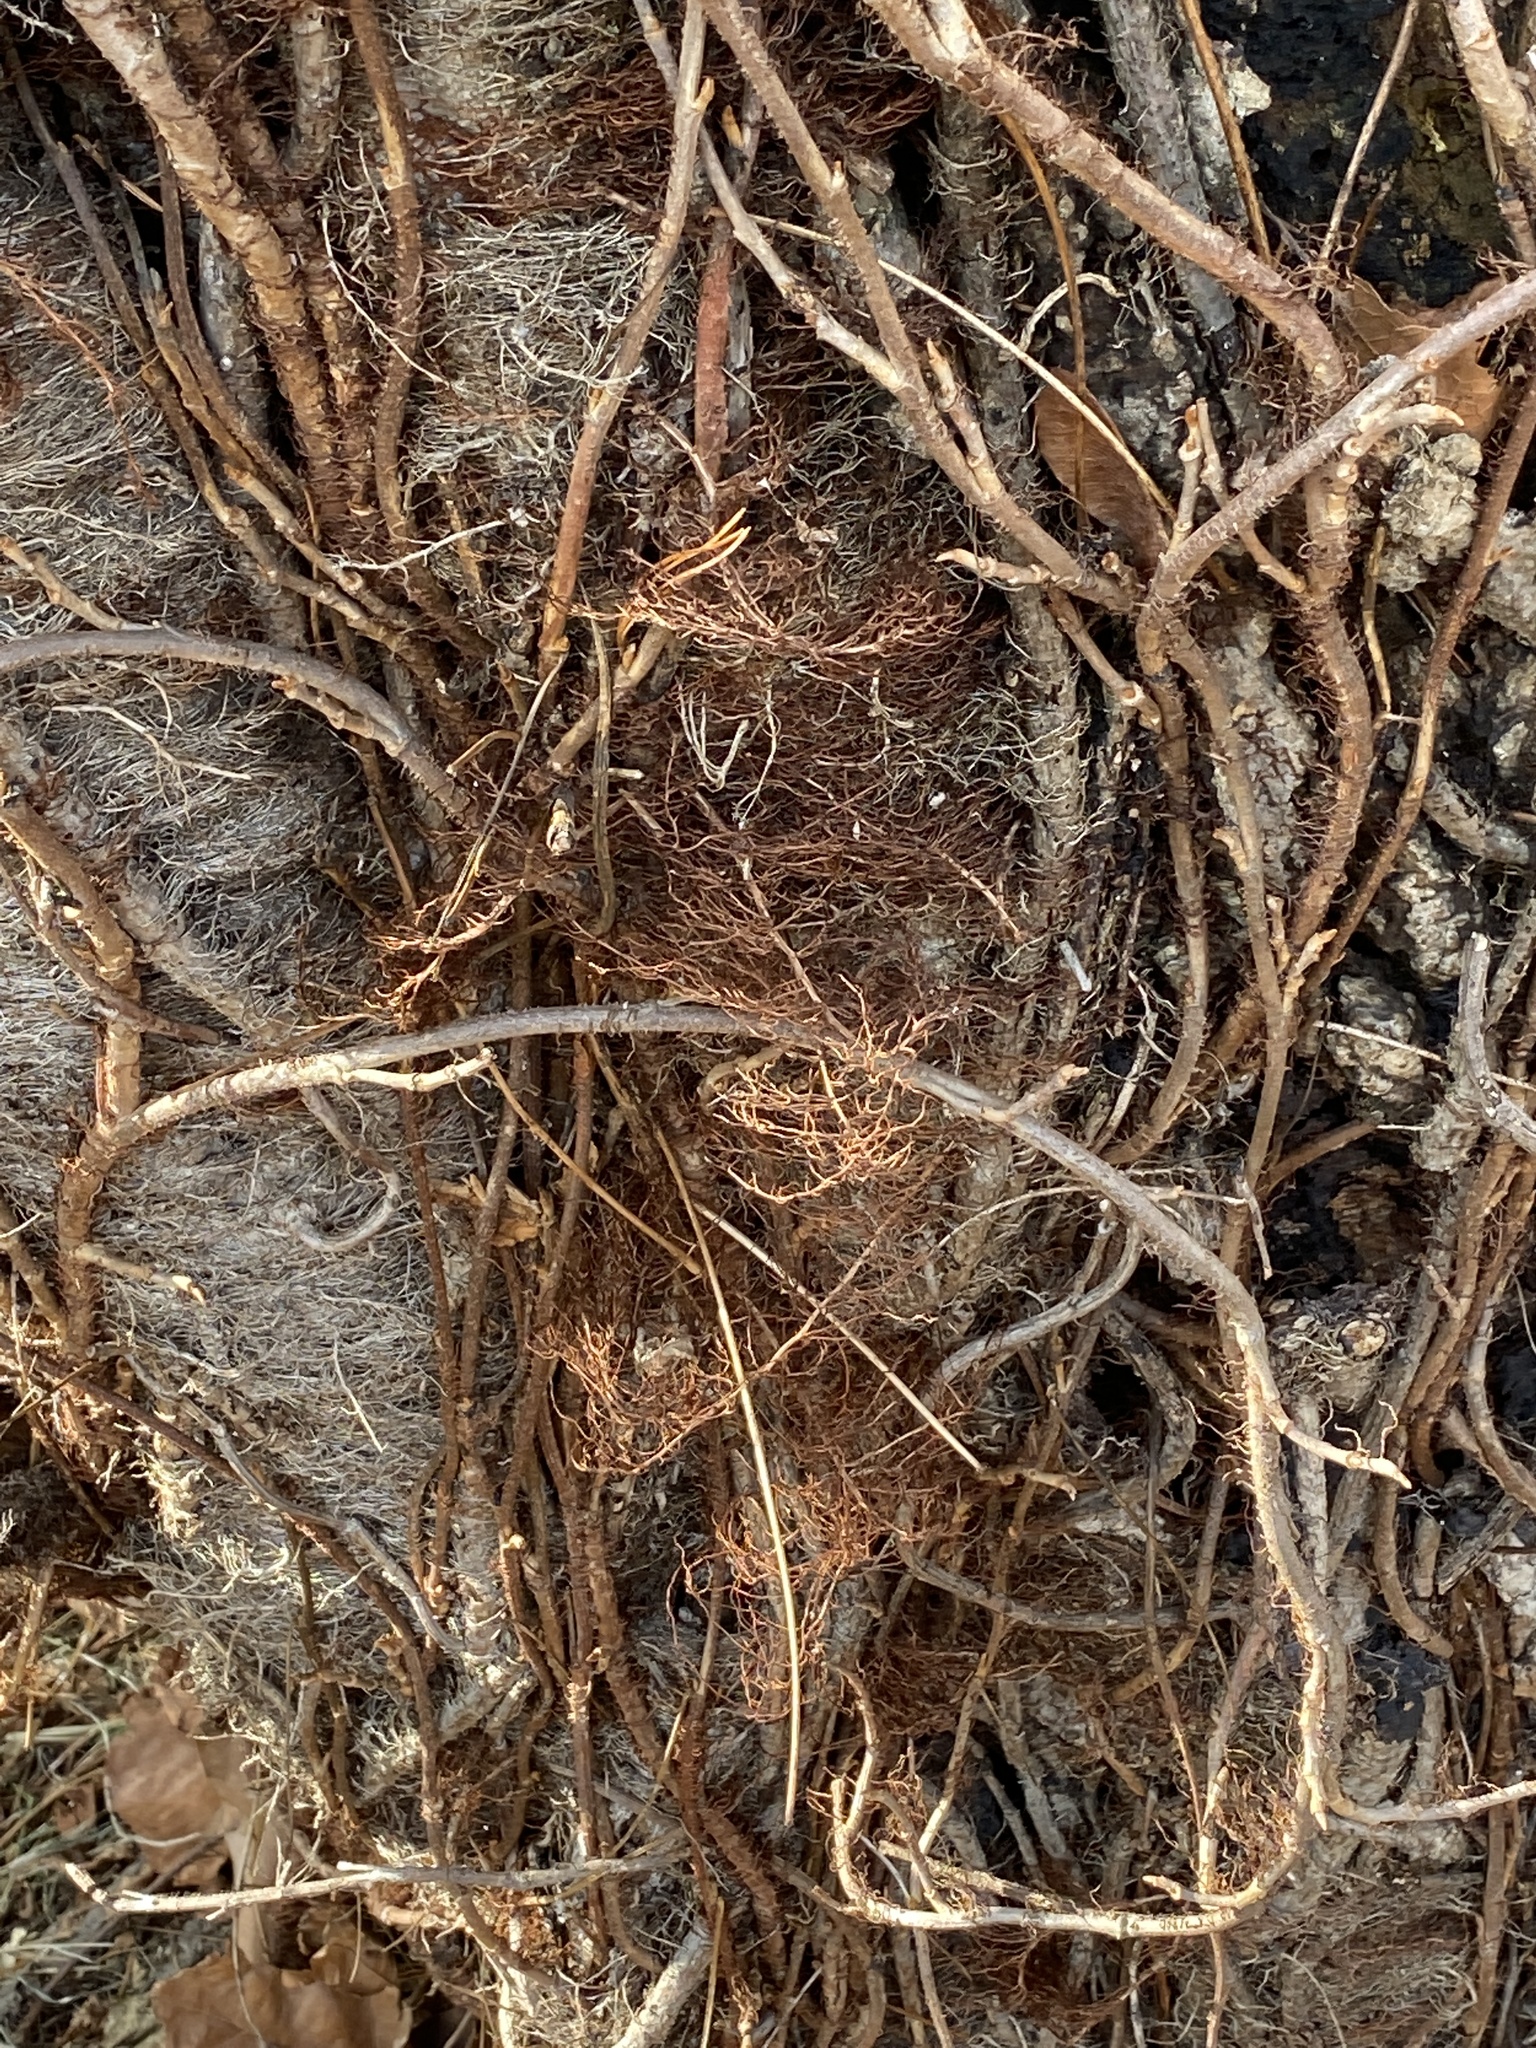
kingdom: Plantae
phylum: Tracheophyta
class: Magnoliopsida
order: Sapindales
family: Anacardiaceae
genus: Toxicodendron
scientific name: Toxicodendron radicans
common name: Poison ivy
